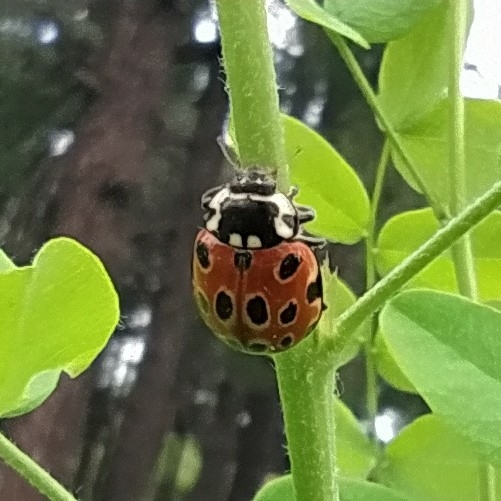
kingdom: Animalia
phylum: Arthropoda
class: Insecta
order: Coleoptera
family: Coccinellidae
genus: Anatis
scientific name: Anatis ocellata
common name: Eyed ladybird
